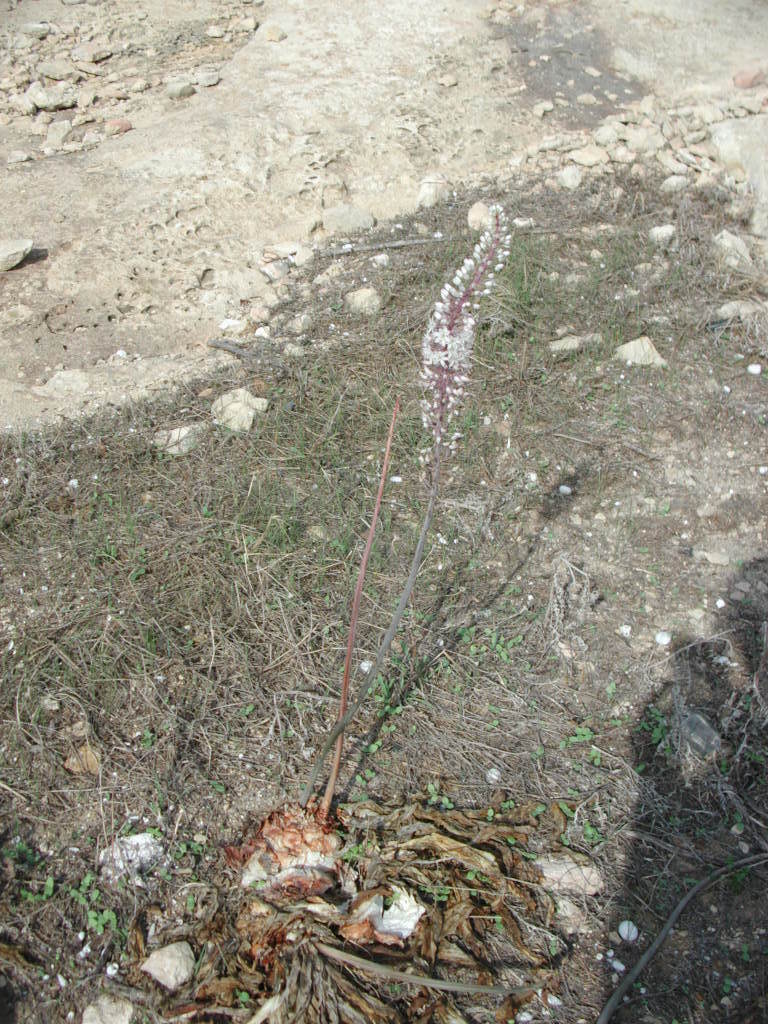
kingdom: Plantae
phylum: Tracheophyta
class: Liliopsida
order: Asparagales
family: Asparagaceae
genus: Drimia
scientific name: Drimia pancration
